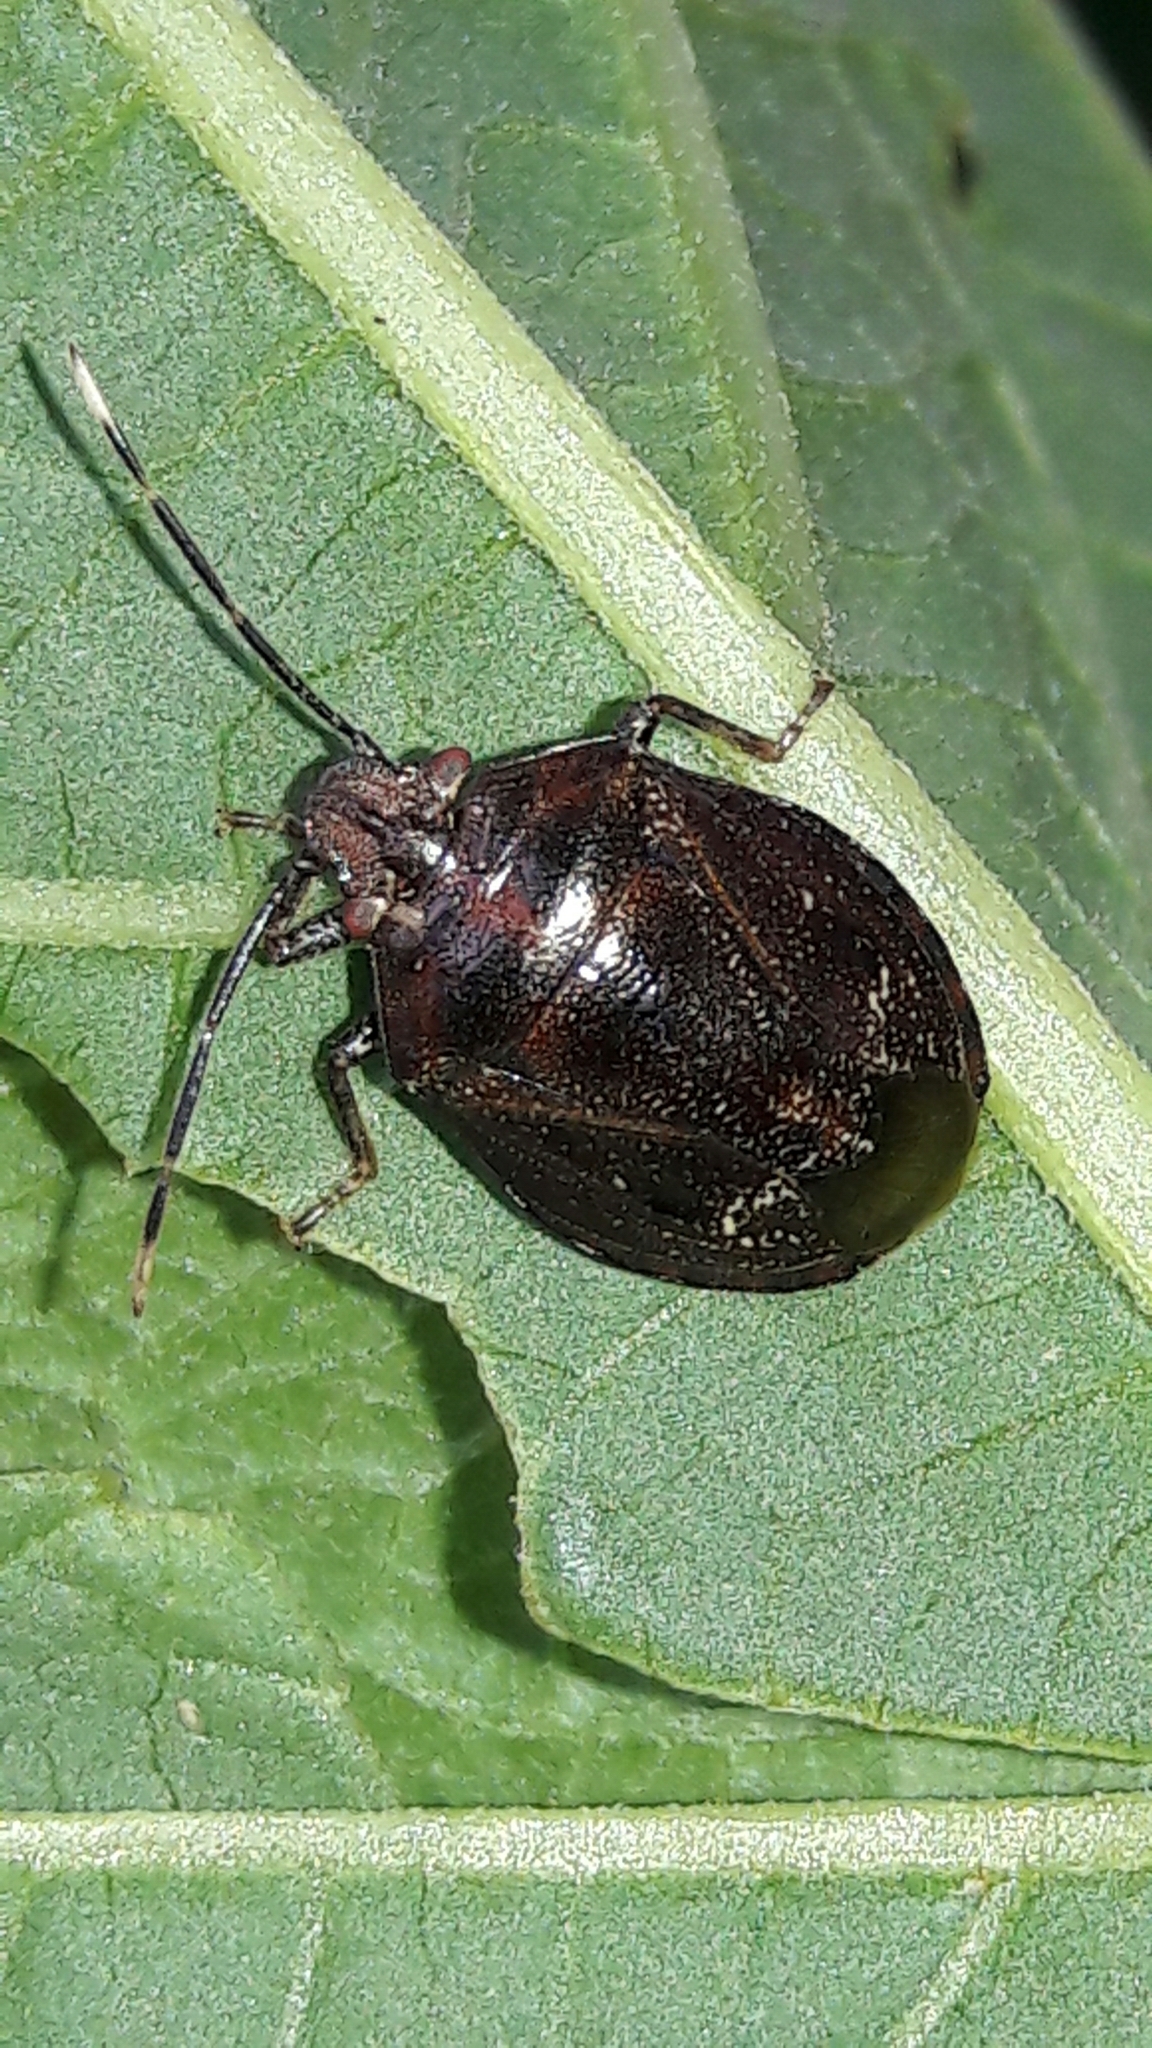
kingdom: Animalia
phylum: Arthropoda
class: Insecta
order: Hemiptera
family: Pentatomidae
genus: Antiteuchus
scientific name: Antiteuchus tripterus
